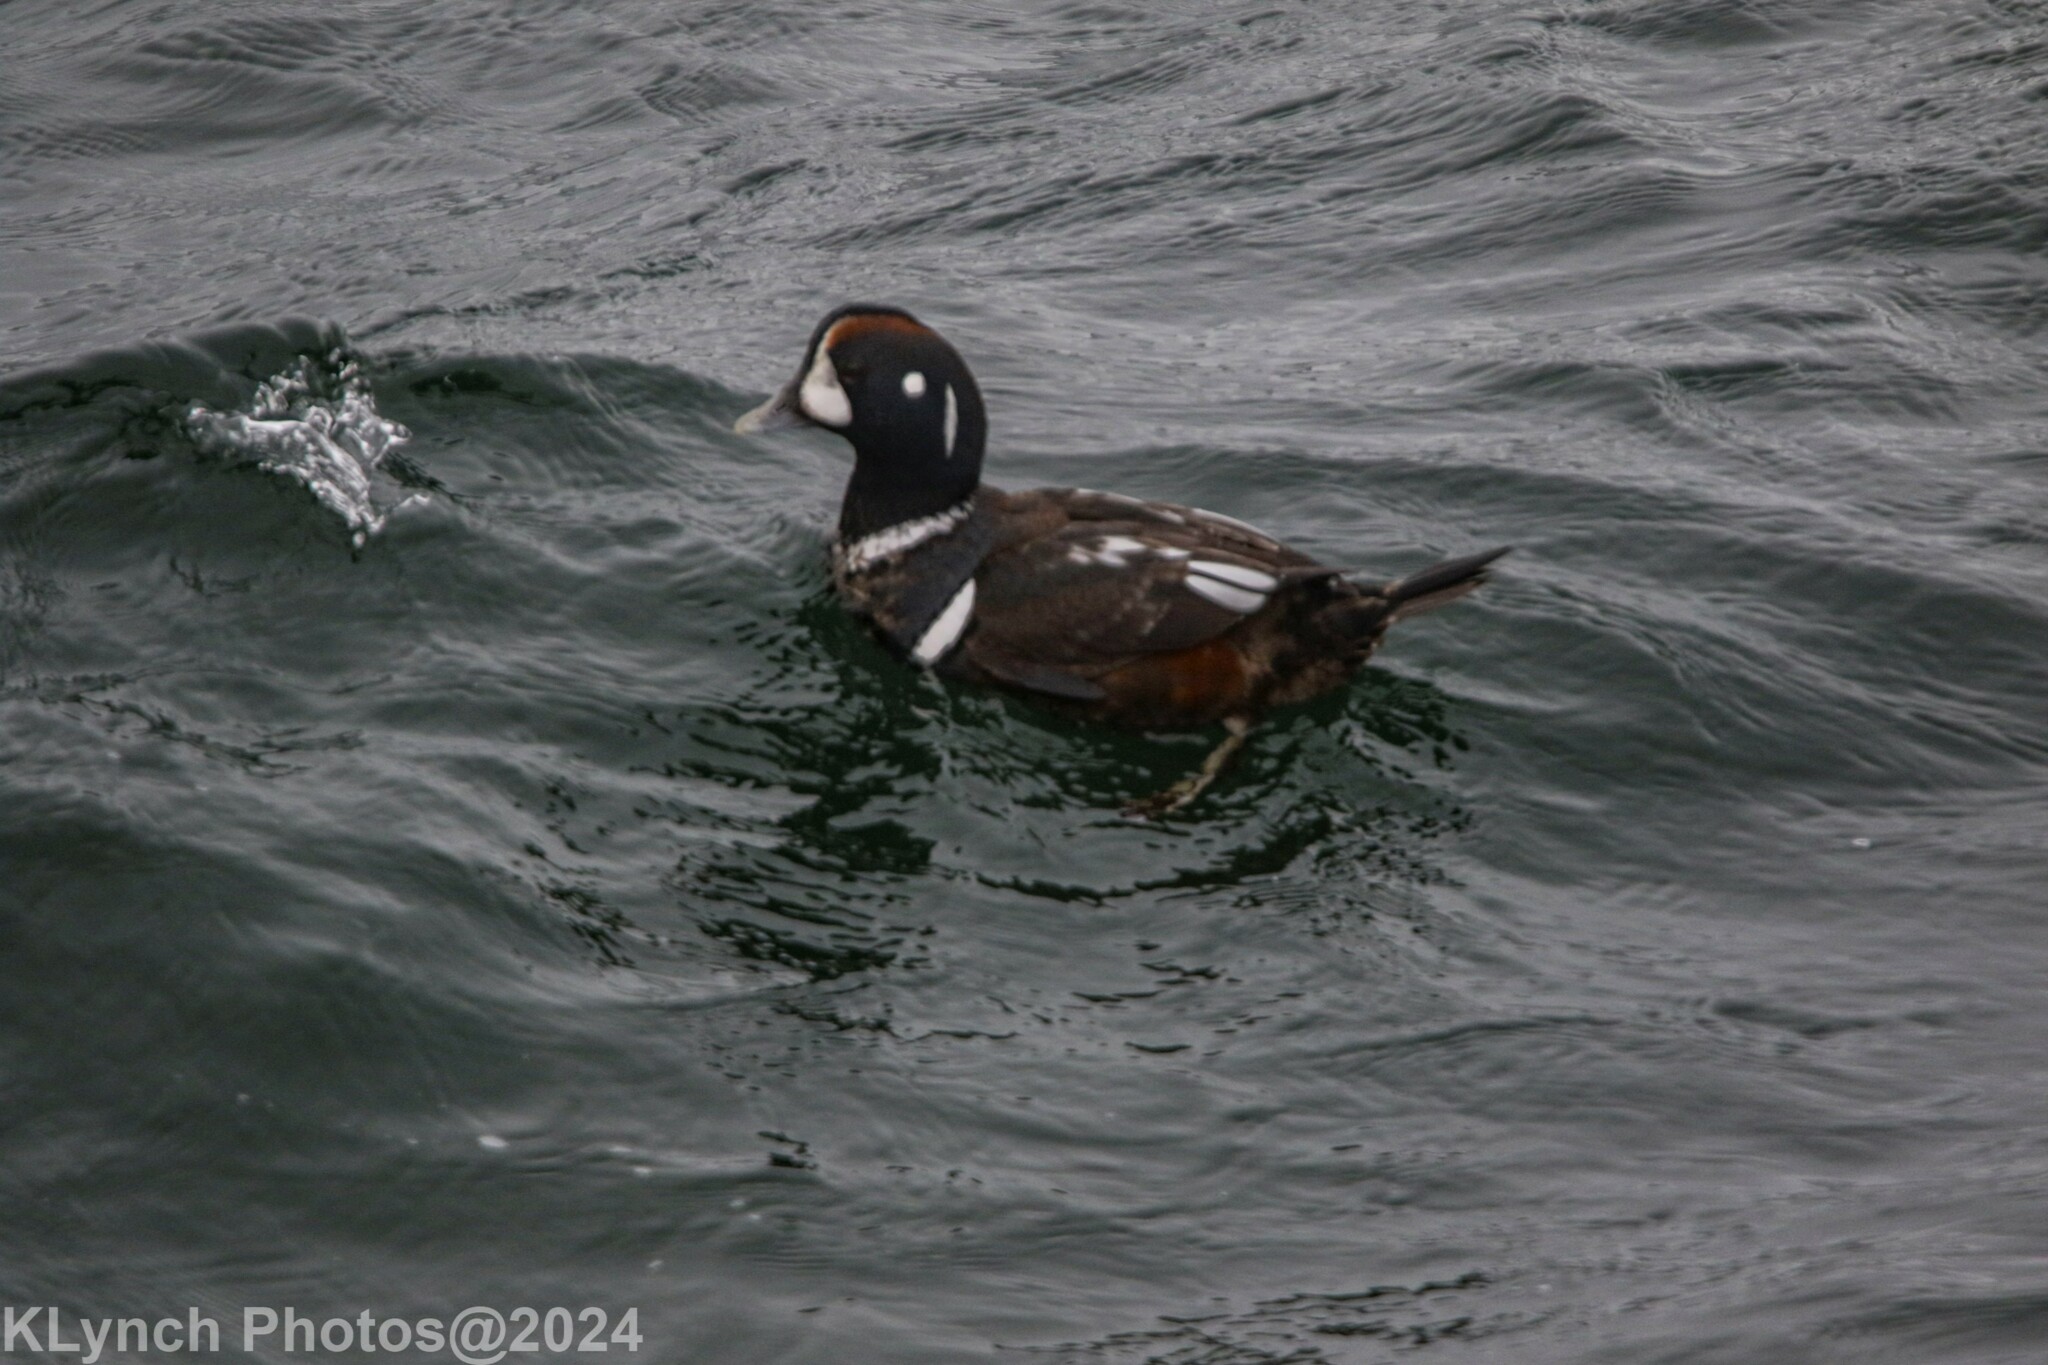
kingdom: Animalia
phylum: Chordata
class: Aves
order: Anseriformes
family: Anatidae
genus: Histrionicus
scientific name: Histrionicus histrionicus
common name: Harlequin duck
